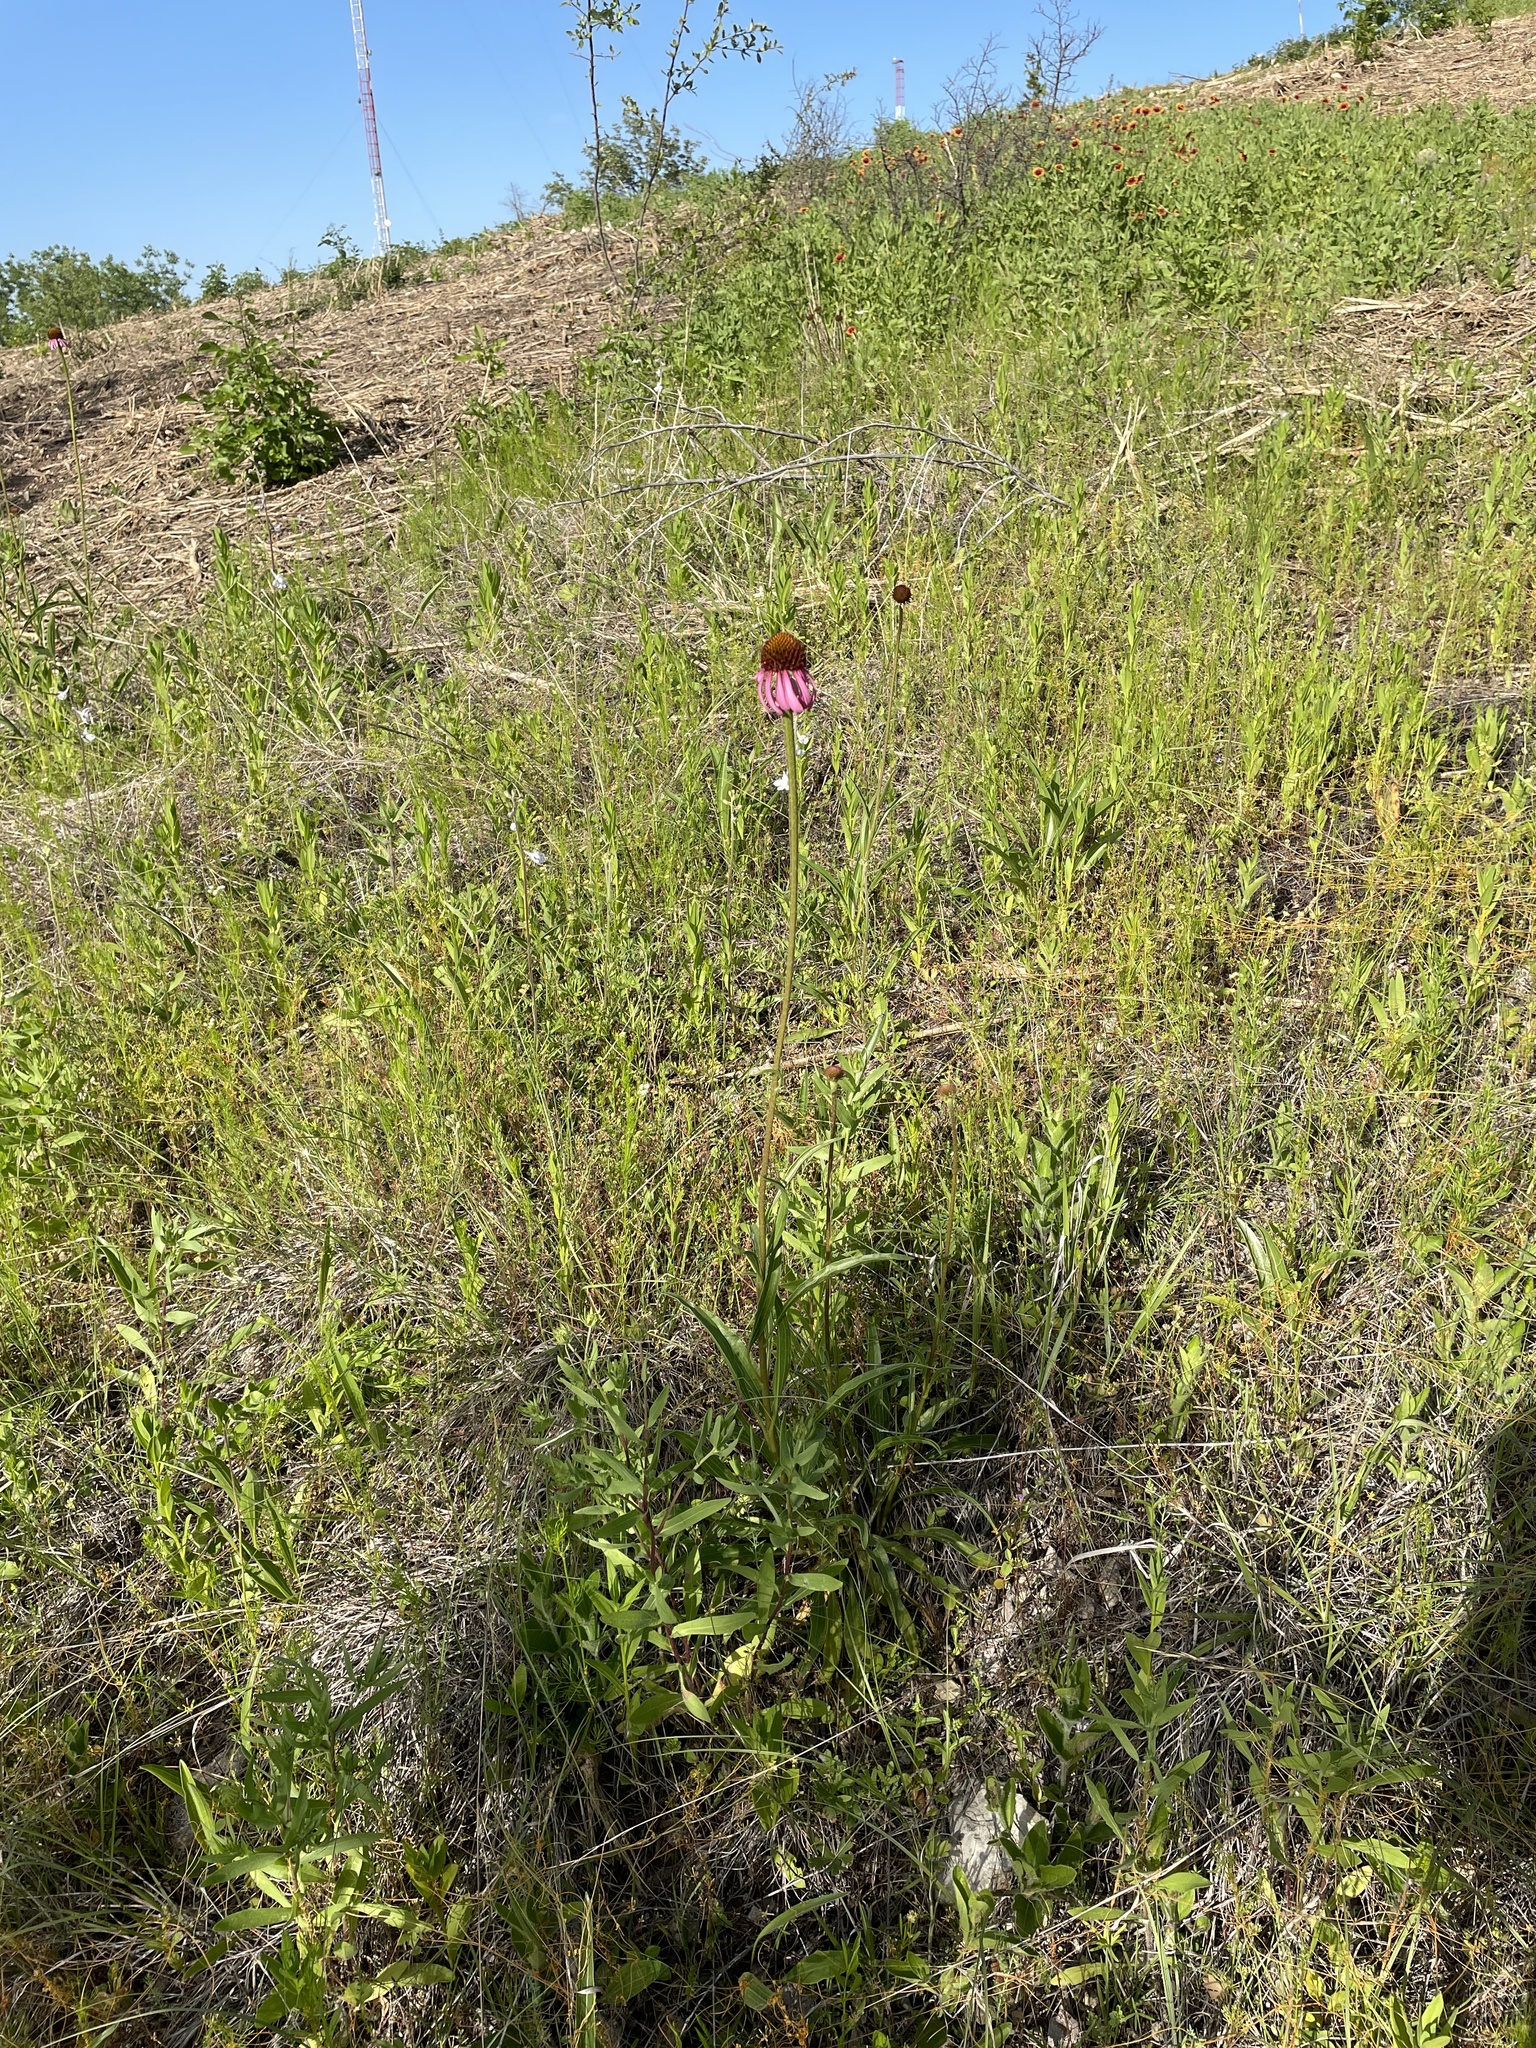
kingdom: Plantae
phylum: Tracheophyta
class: Magnoliopsida
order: Asterales
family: Asteraceae
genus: Echinacea
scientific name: Echinacea atrorubens
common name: Topeka purple-coneflower
